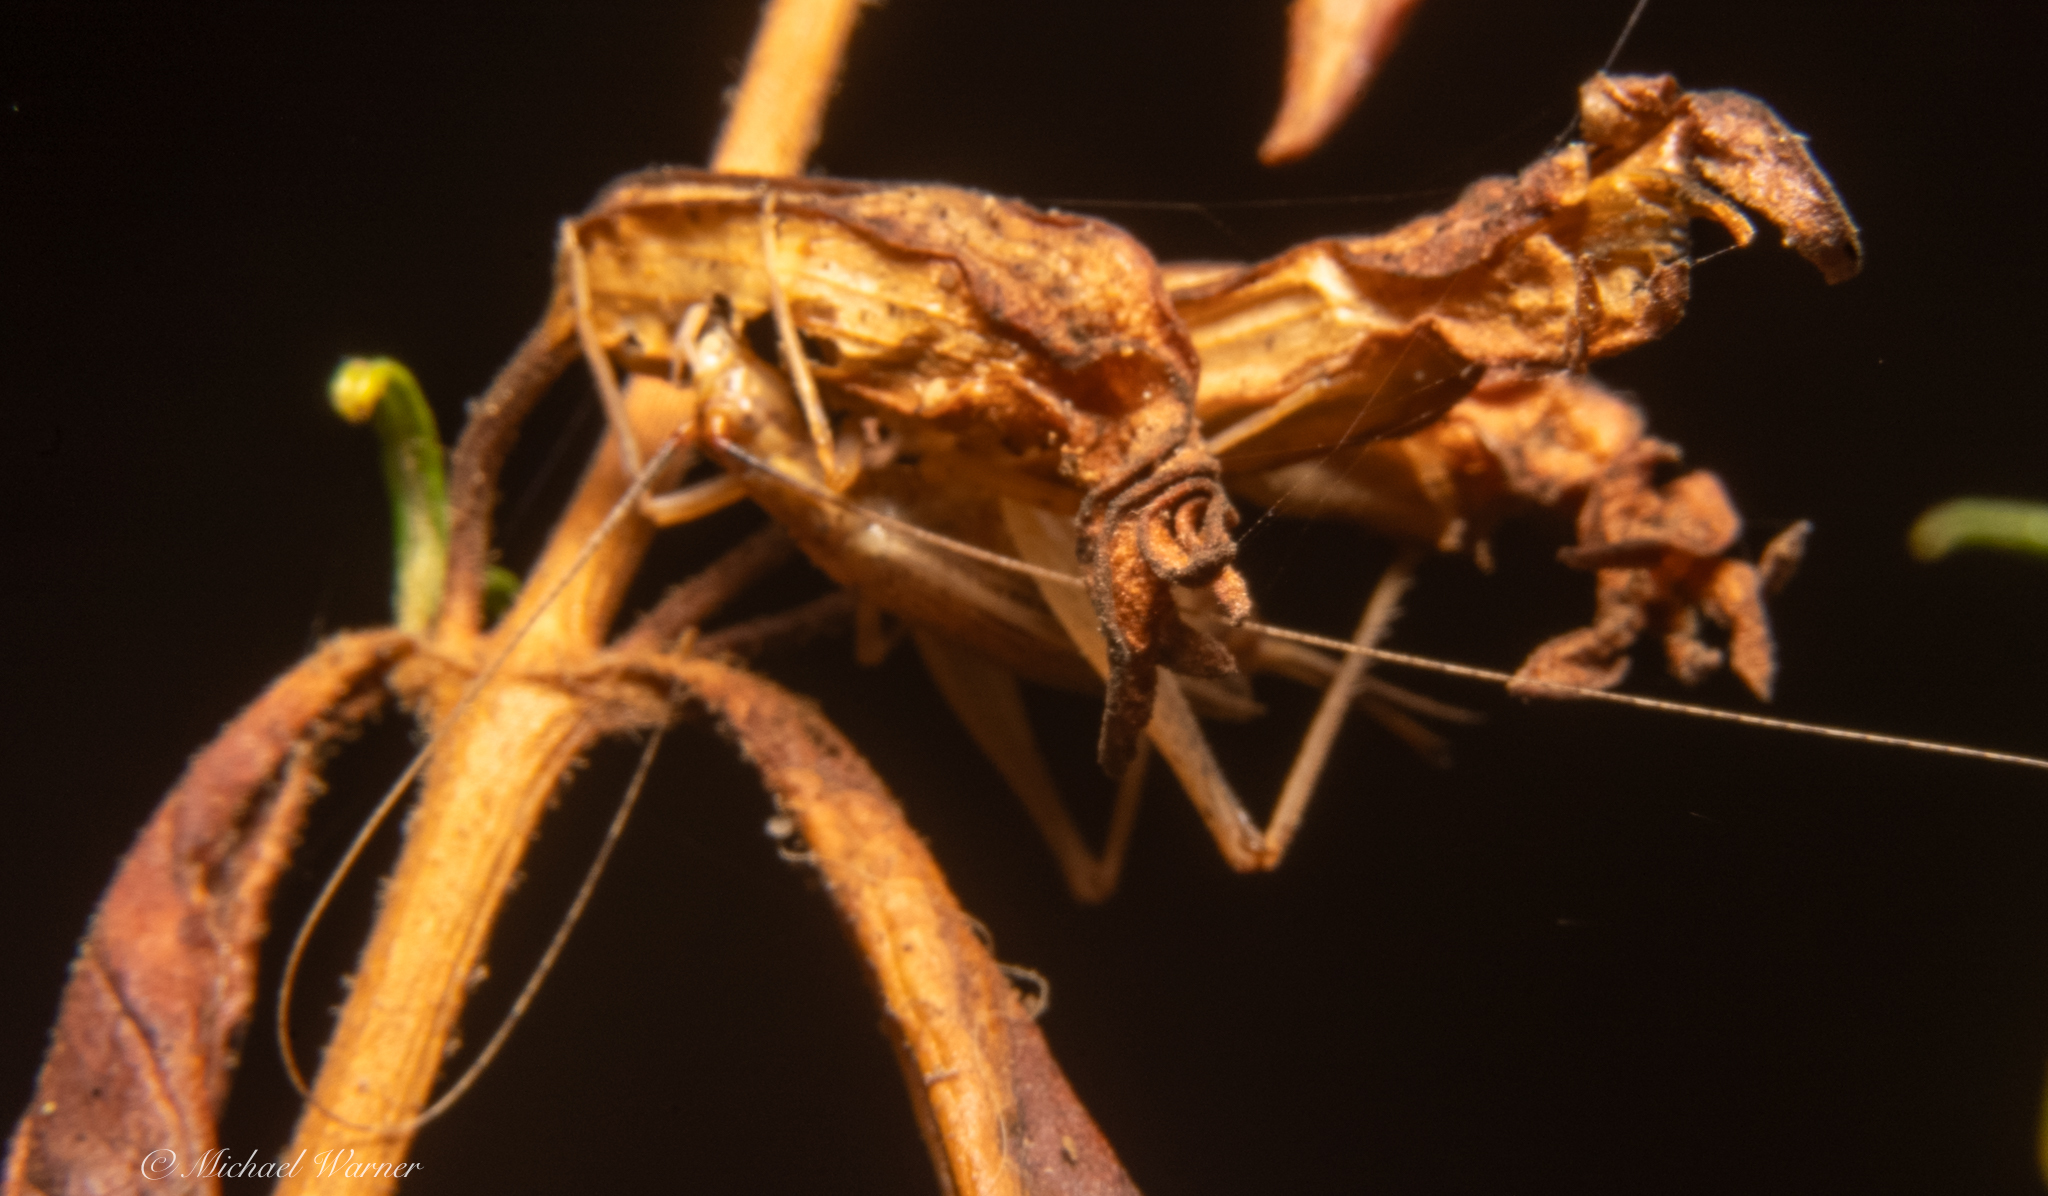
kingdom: Animalia
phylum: Arthropoda
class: Insecta
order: Orthoptera
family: Gryllidae
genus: Oecanthus
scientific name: Oecanthus californicus
